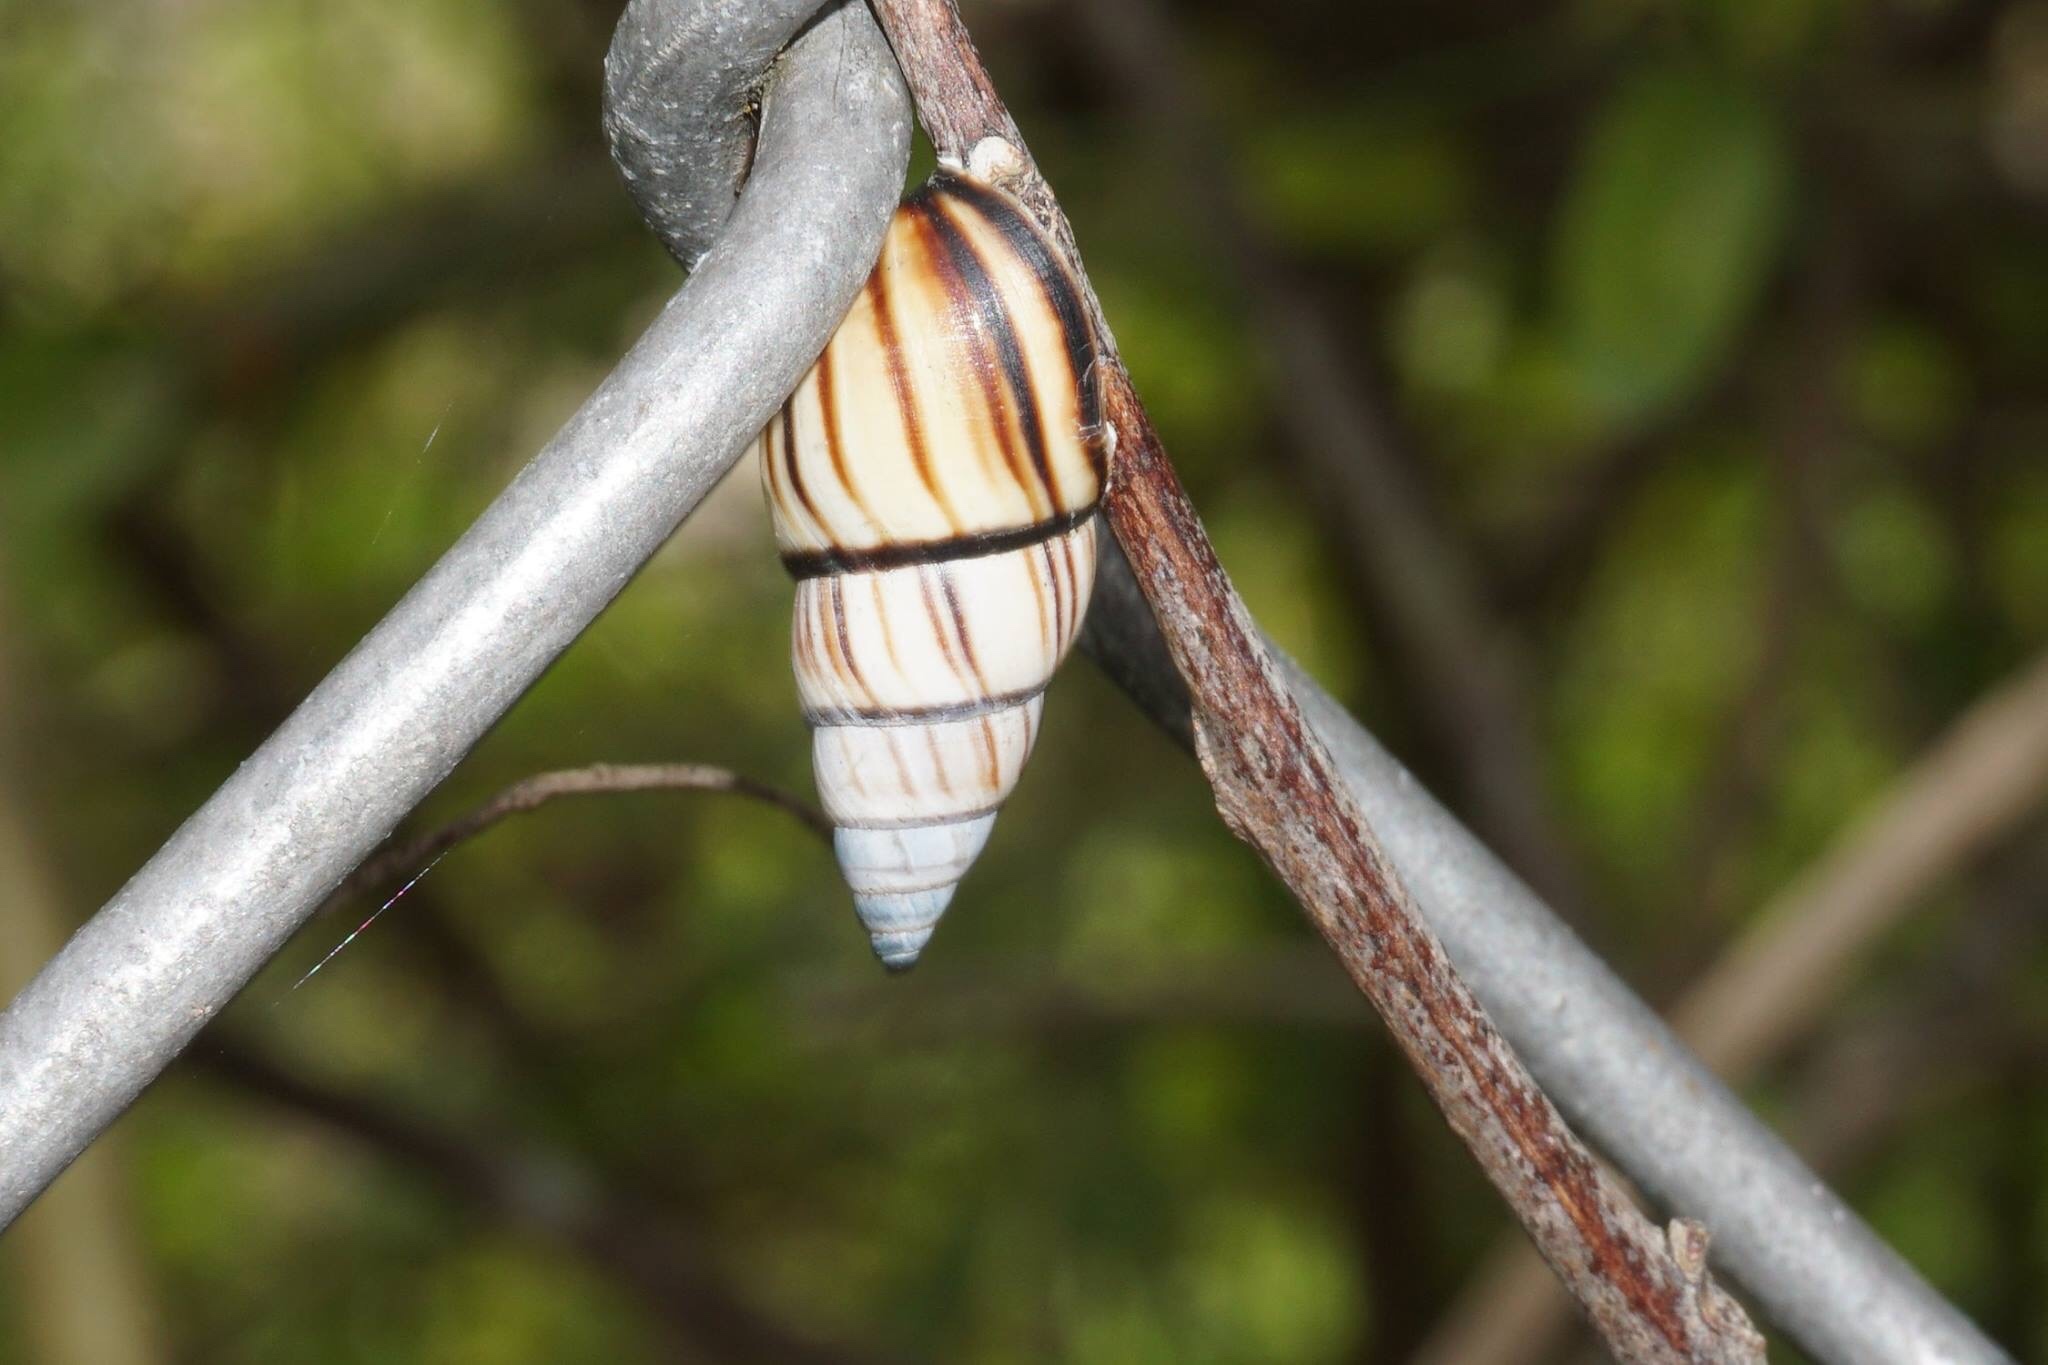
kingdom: Animalia
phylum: Mollusca
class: Gastropoda
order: Stylommatophora
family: Bulimulidae
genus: Drymaeus
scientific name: Drymaeus
